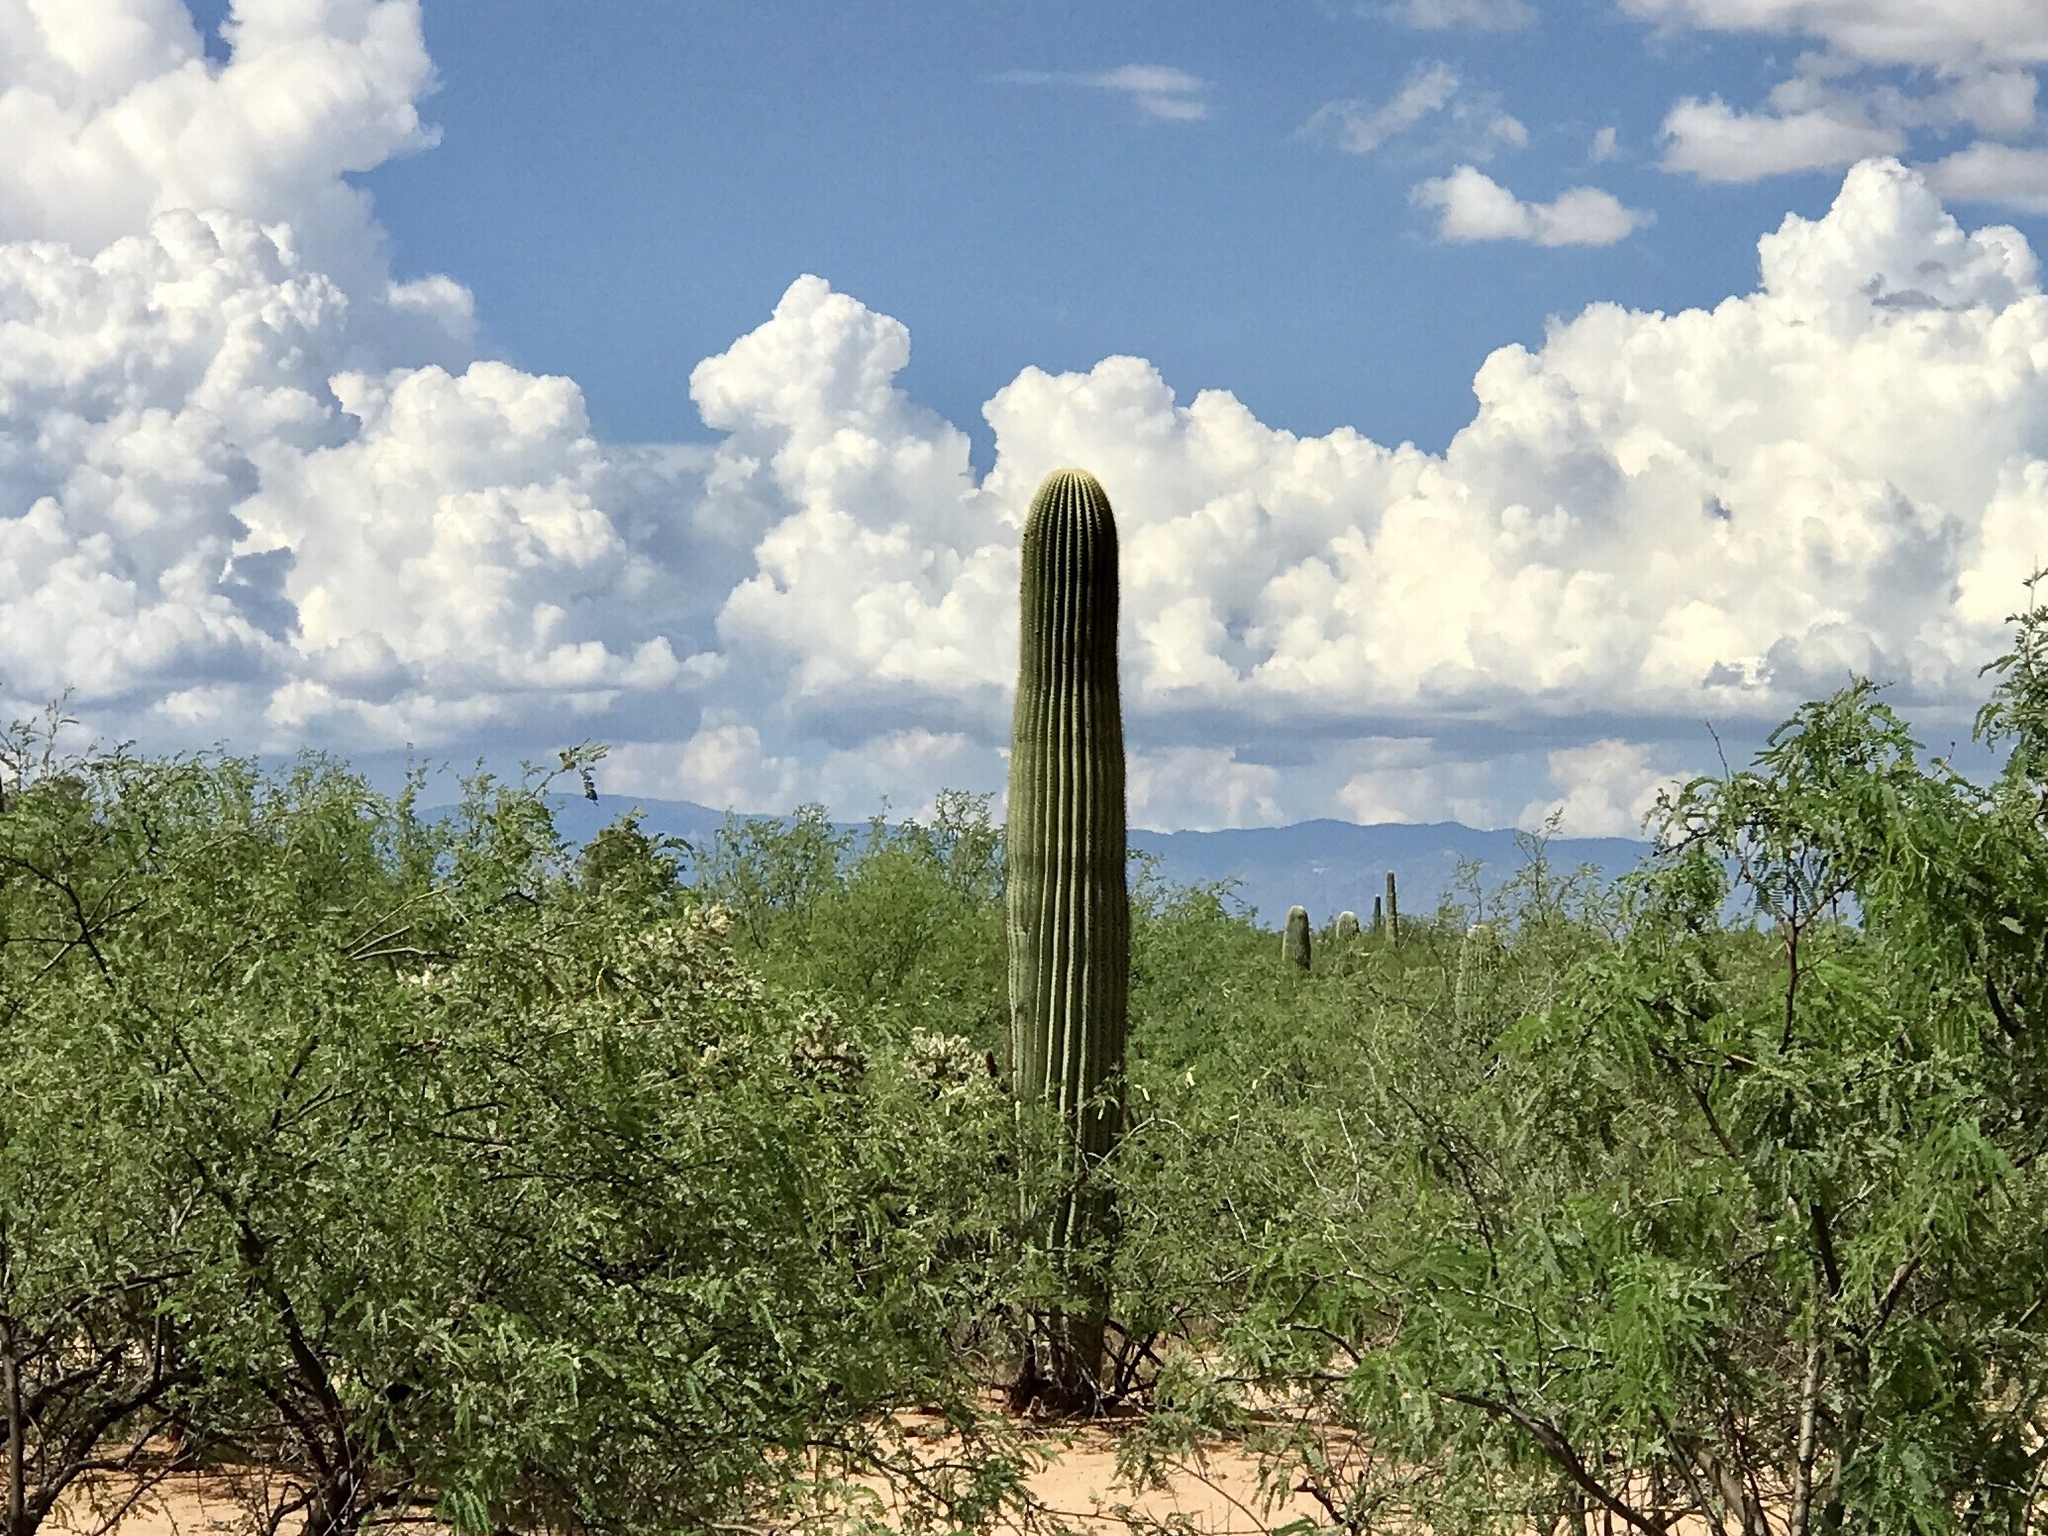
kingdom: Plantae
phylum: Tracheophyta
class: Magnoliopsida
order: Caryophyllales
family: Cactaceae
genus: Carnegiea
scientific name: Carnegiea gigantea
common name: Saguaro
